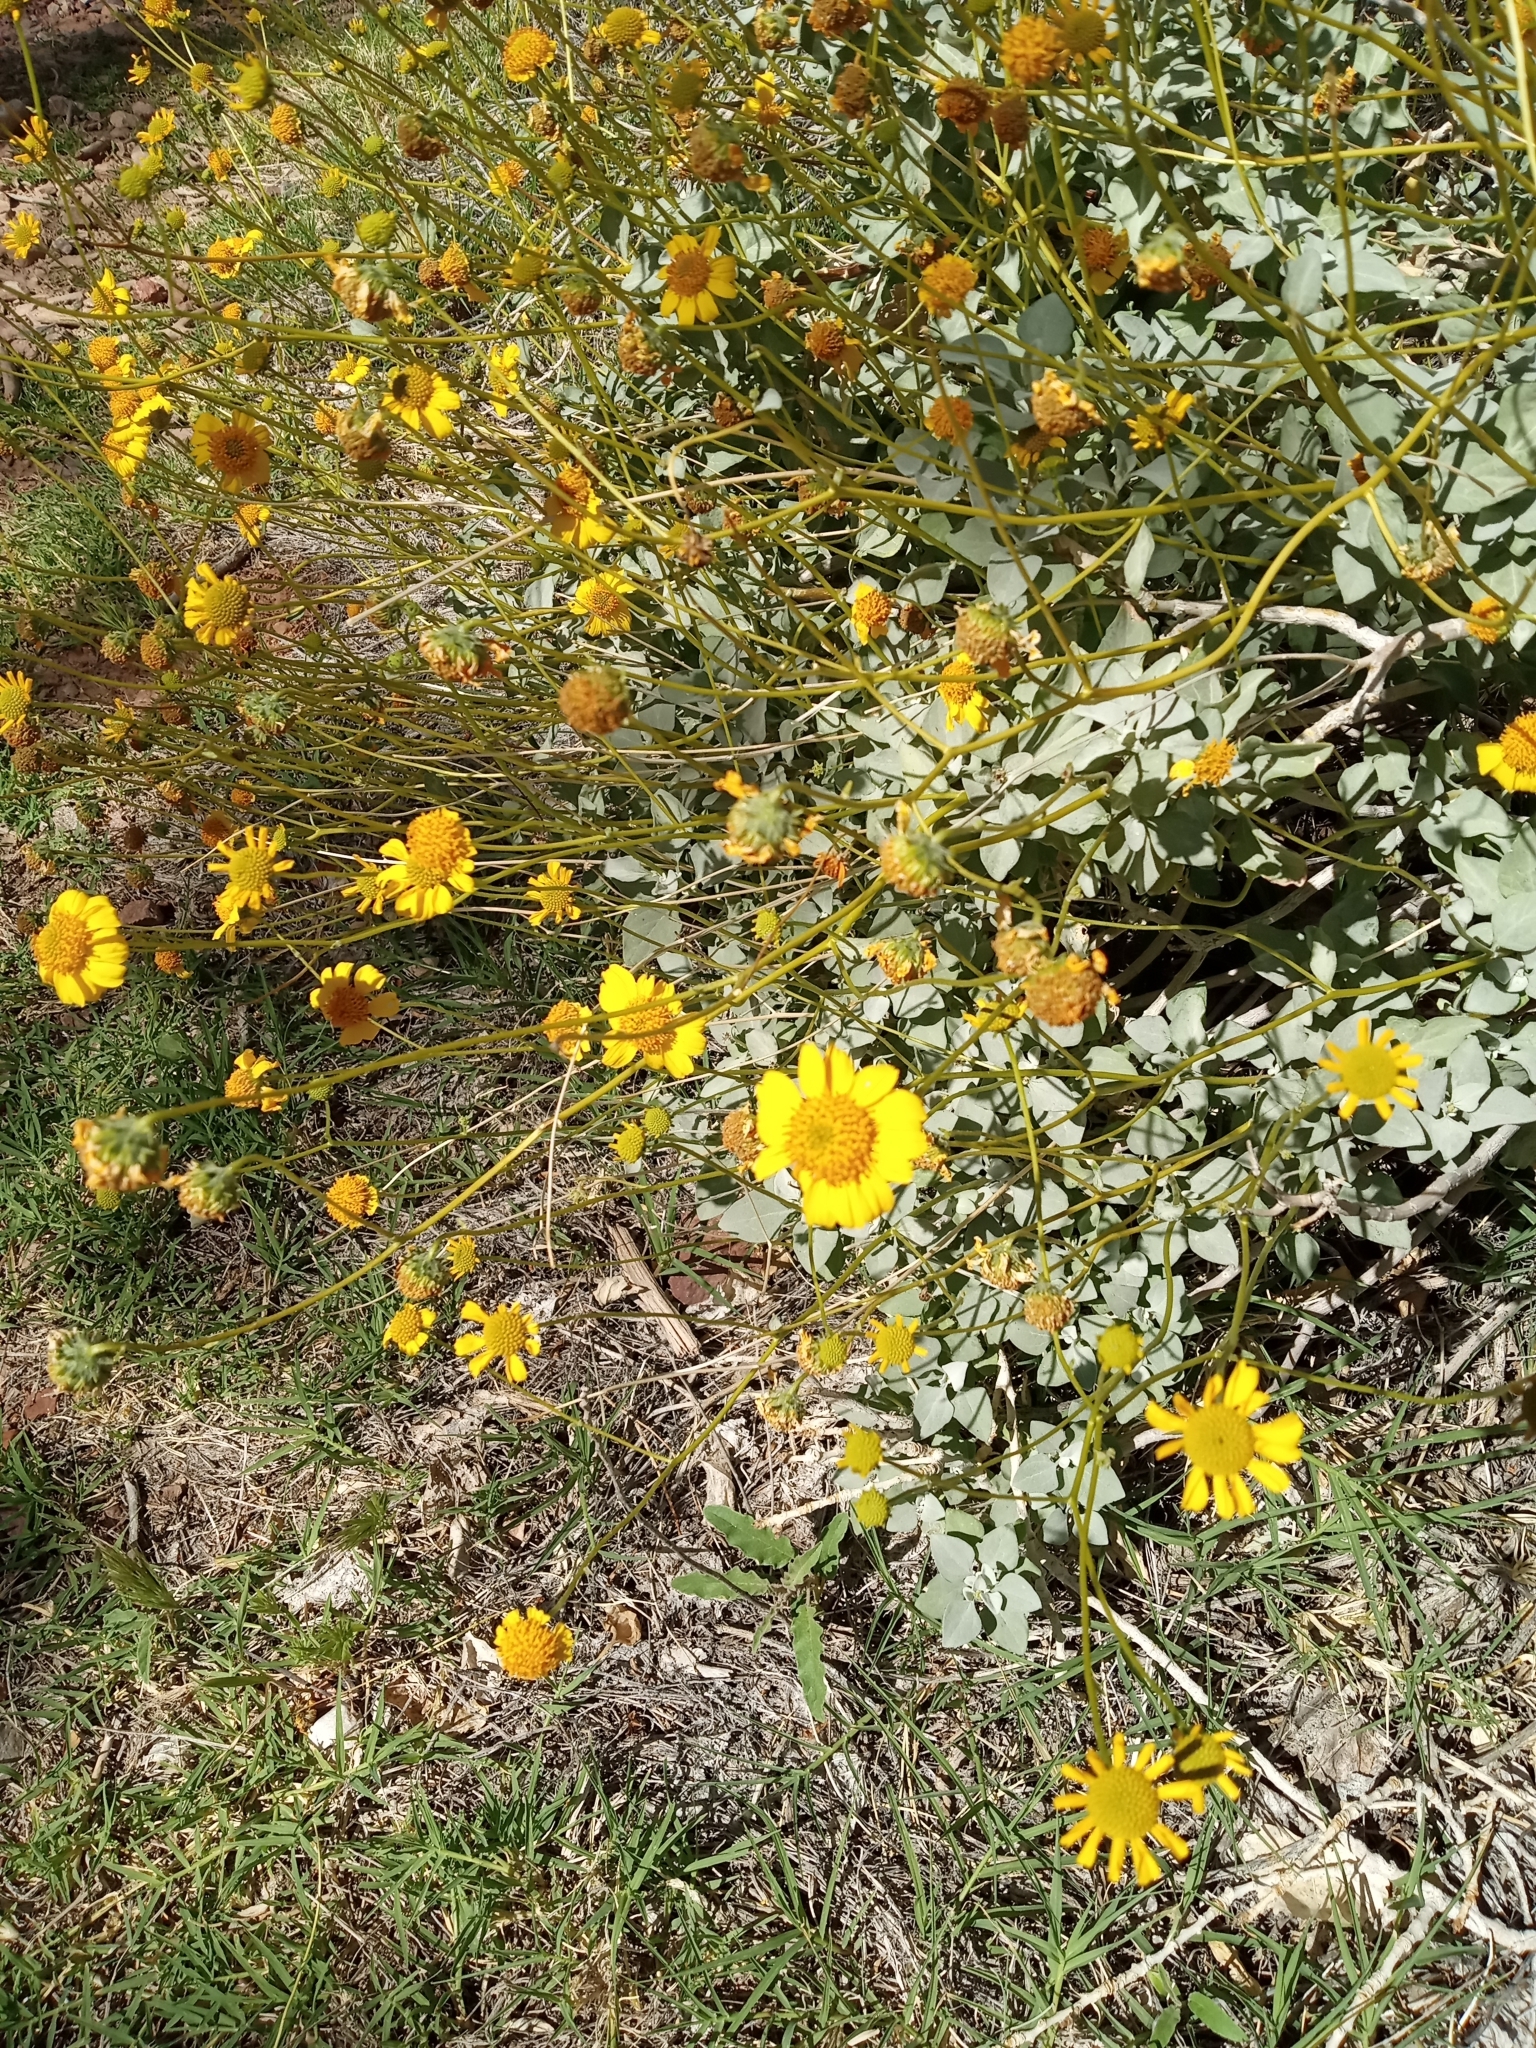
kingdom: Plantae
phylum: Tracheophyta
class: Magnoliopsida
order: Asterales
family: Asteraceae
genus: Encelia
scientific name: Encelia farinosa
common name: Brittlebush
